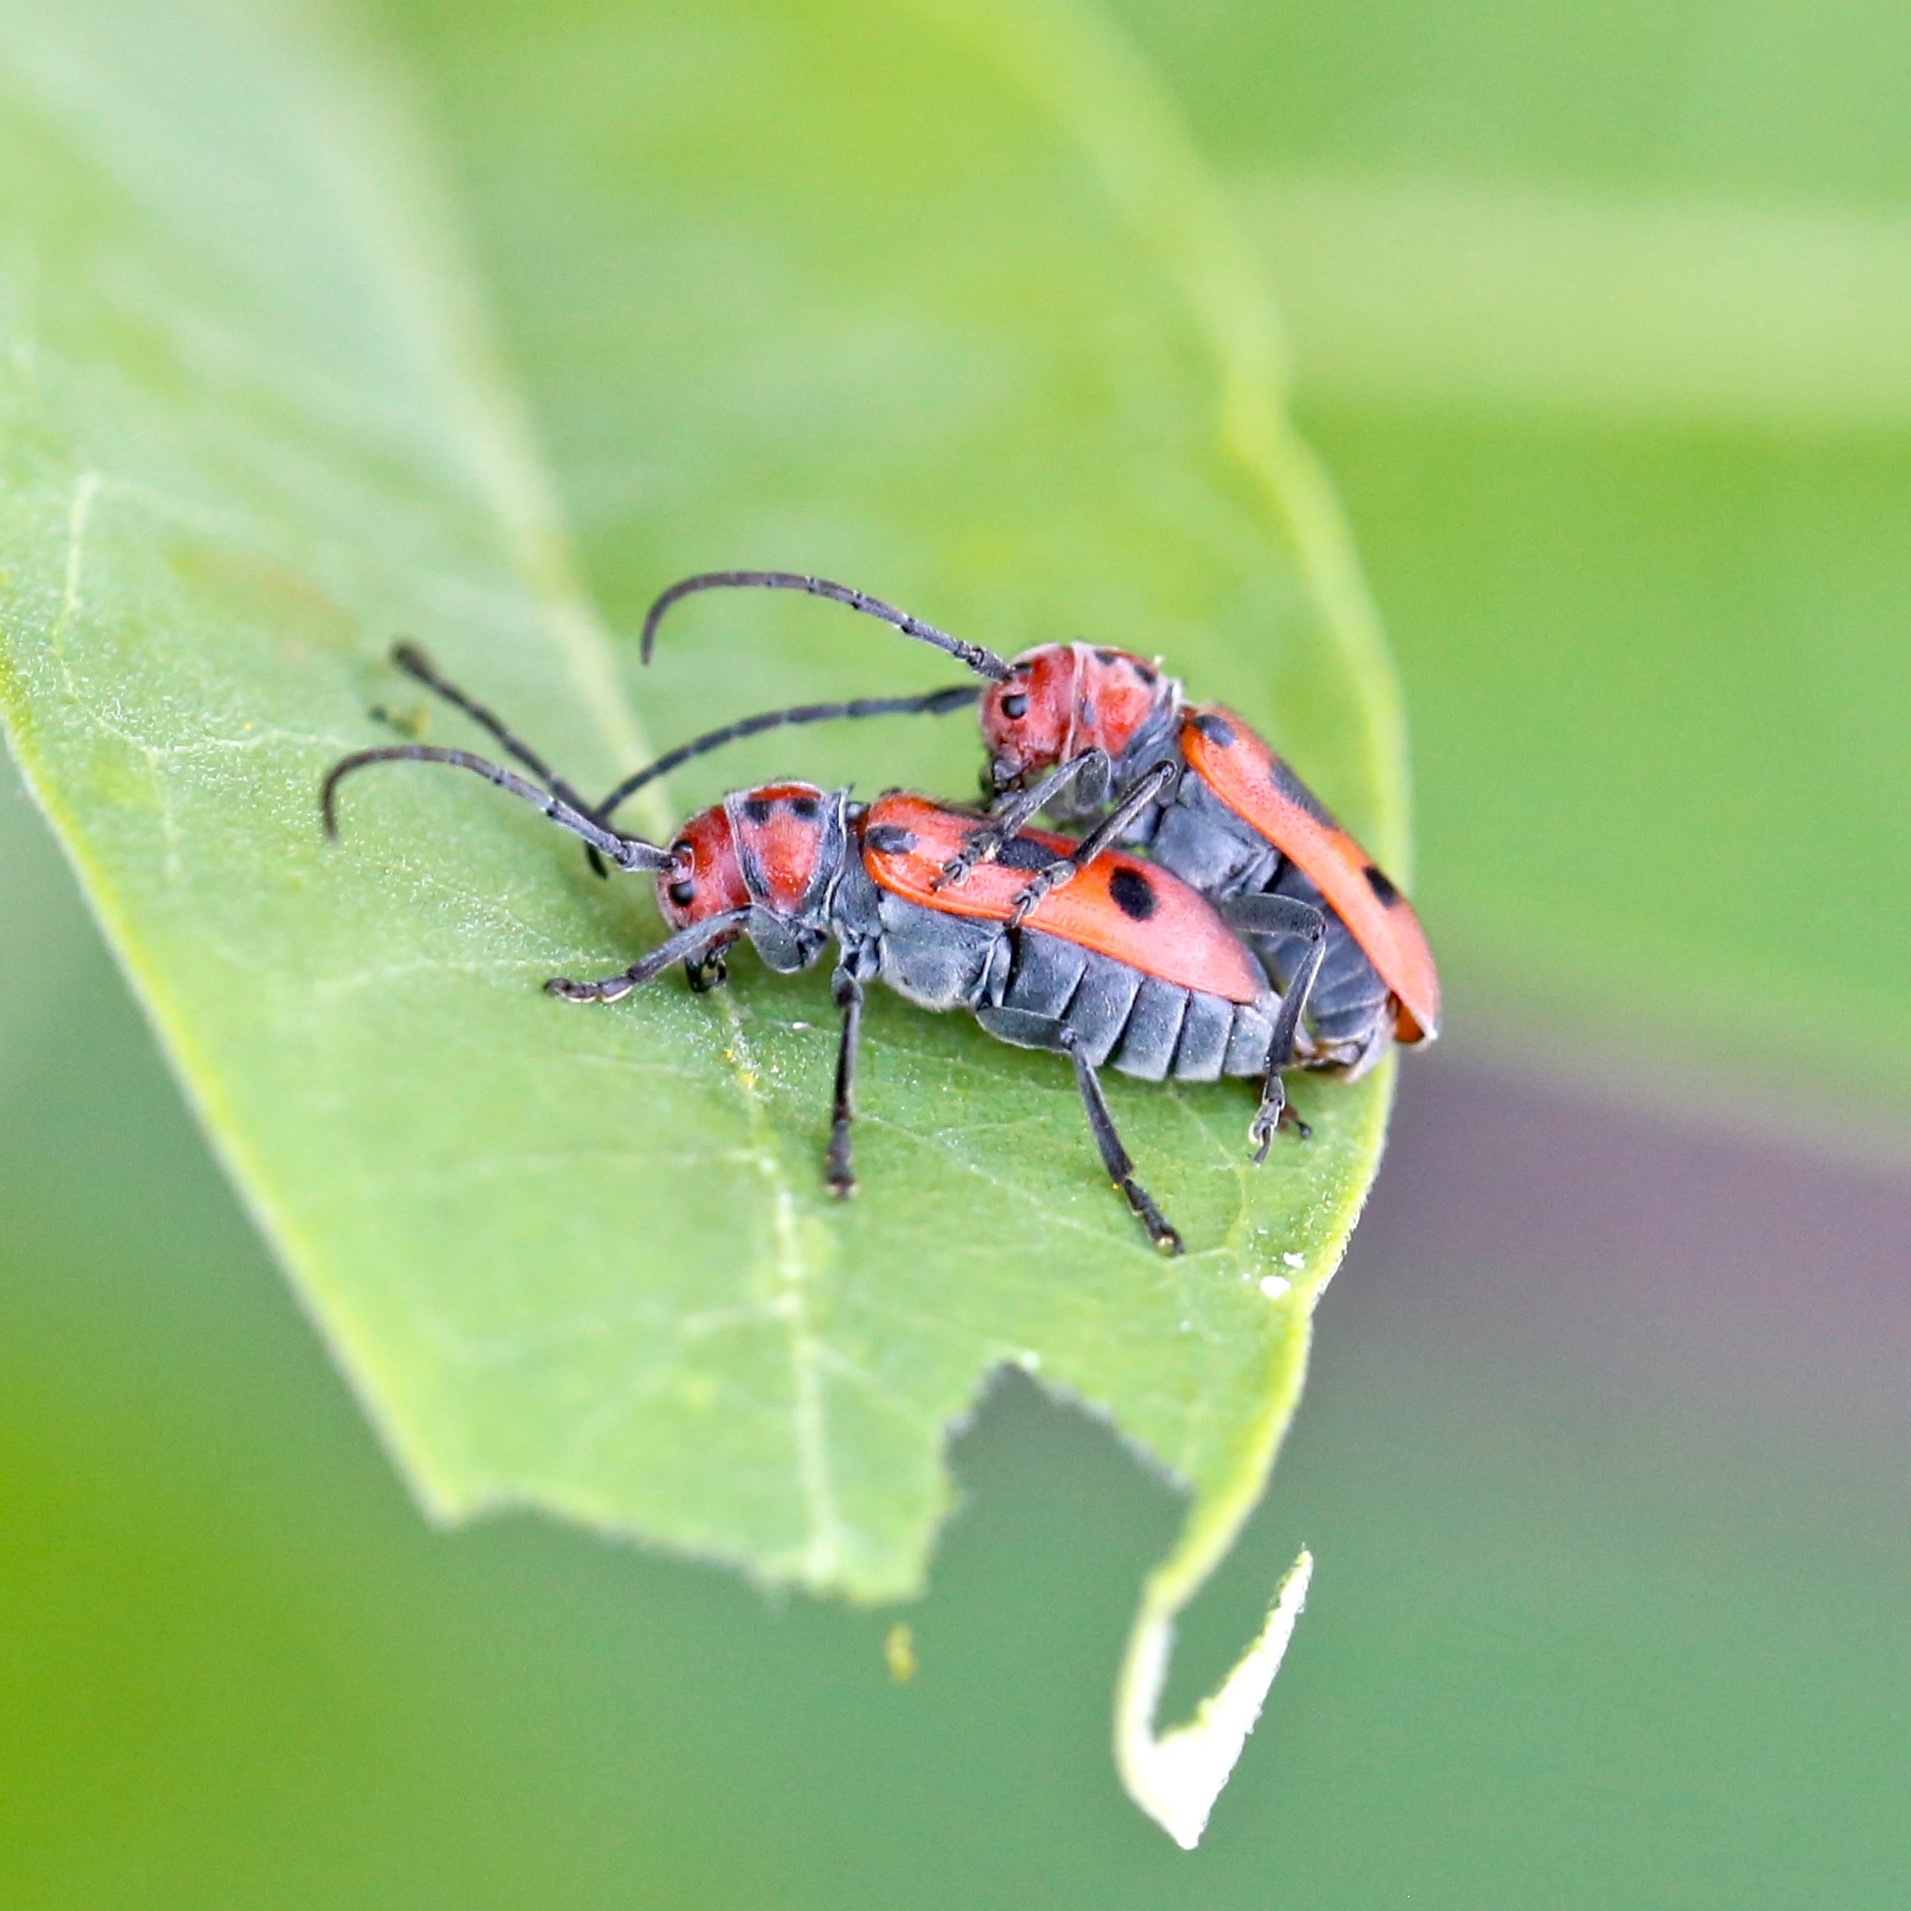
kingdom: Animalia
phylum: Arthropoda
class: Insecta
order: Coleoptera
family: Cerambycidae
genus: Tetraopes
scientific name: Tetraopes tetrophthalmus
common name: Red milkweed beetle
